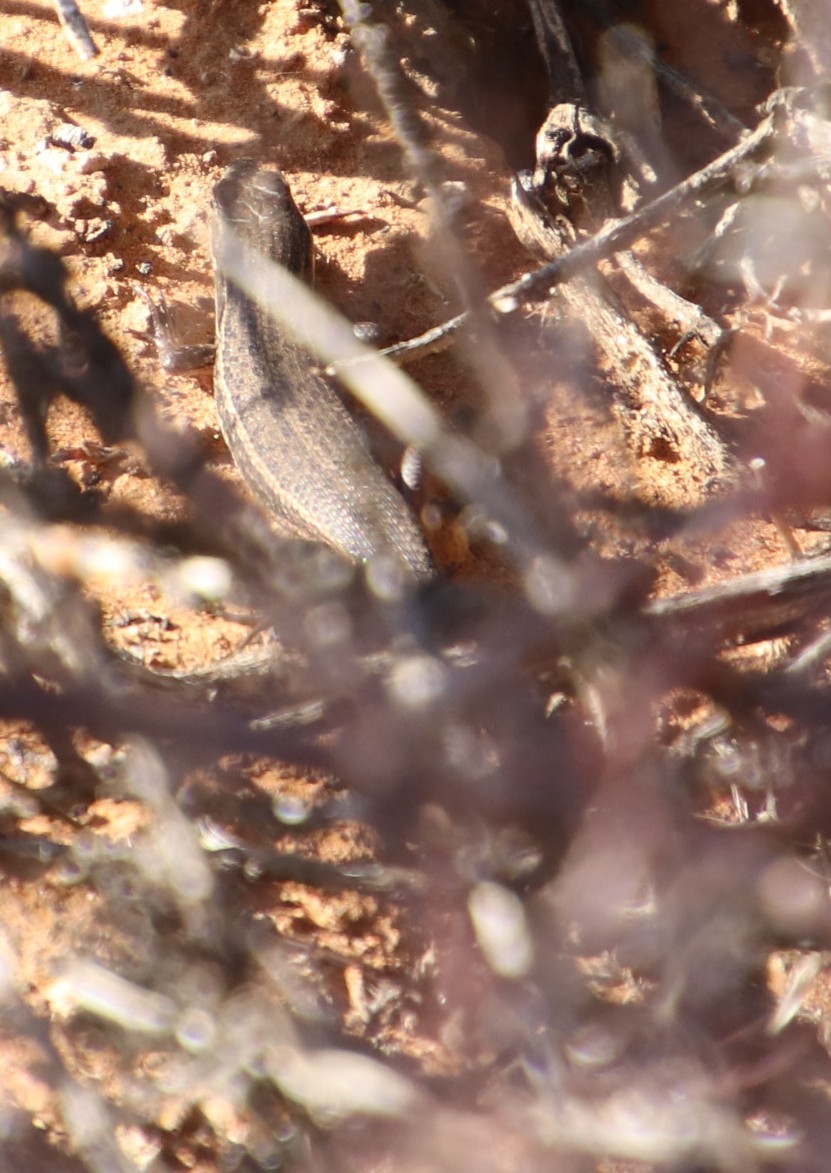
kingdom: Animalia
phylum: Chordata
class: Squamata
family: Scincidae
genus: Trachylepis
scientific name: Trachylepis variegata
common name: Variegated skink
